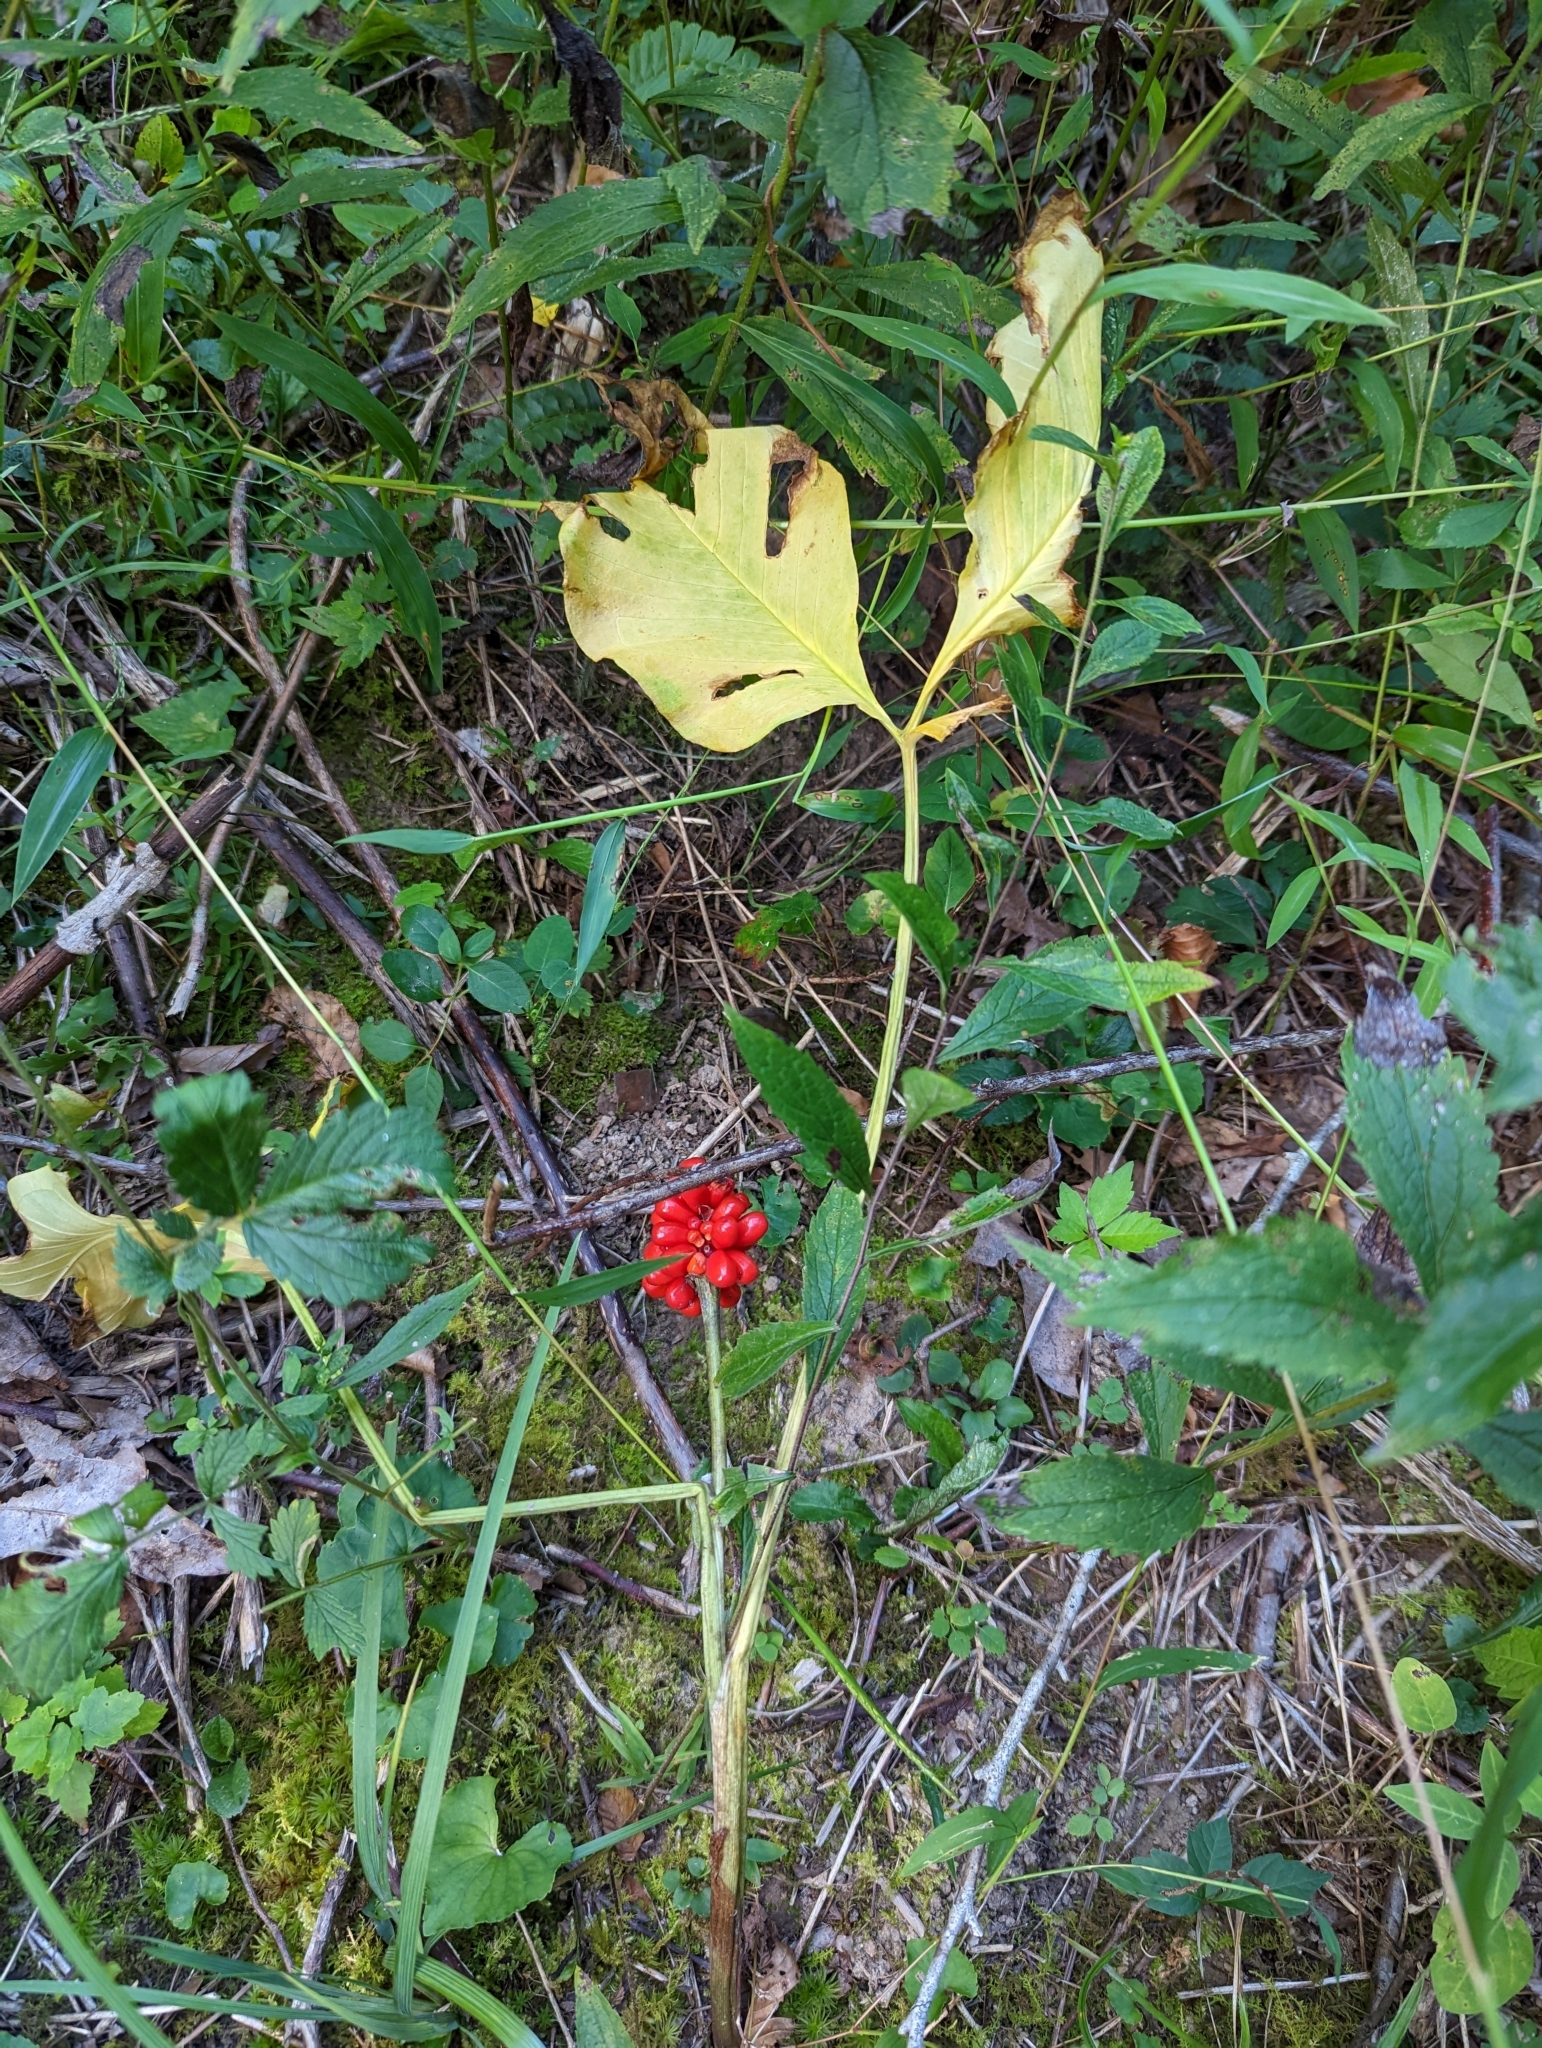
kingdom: Plantae
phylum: Tracheophyta
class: Liliopsida
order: Alismatales
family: Araceae
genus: Arisaema
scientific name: Arisaema triphyllum
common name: Jack-in-the-pulpit
